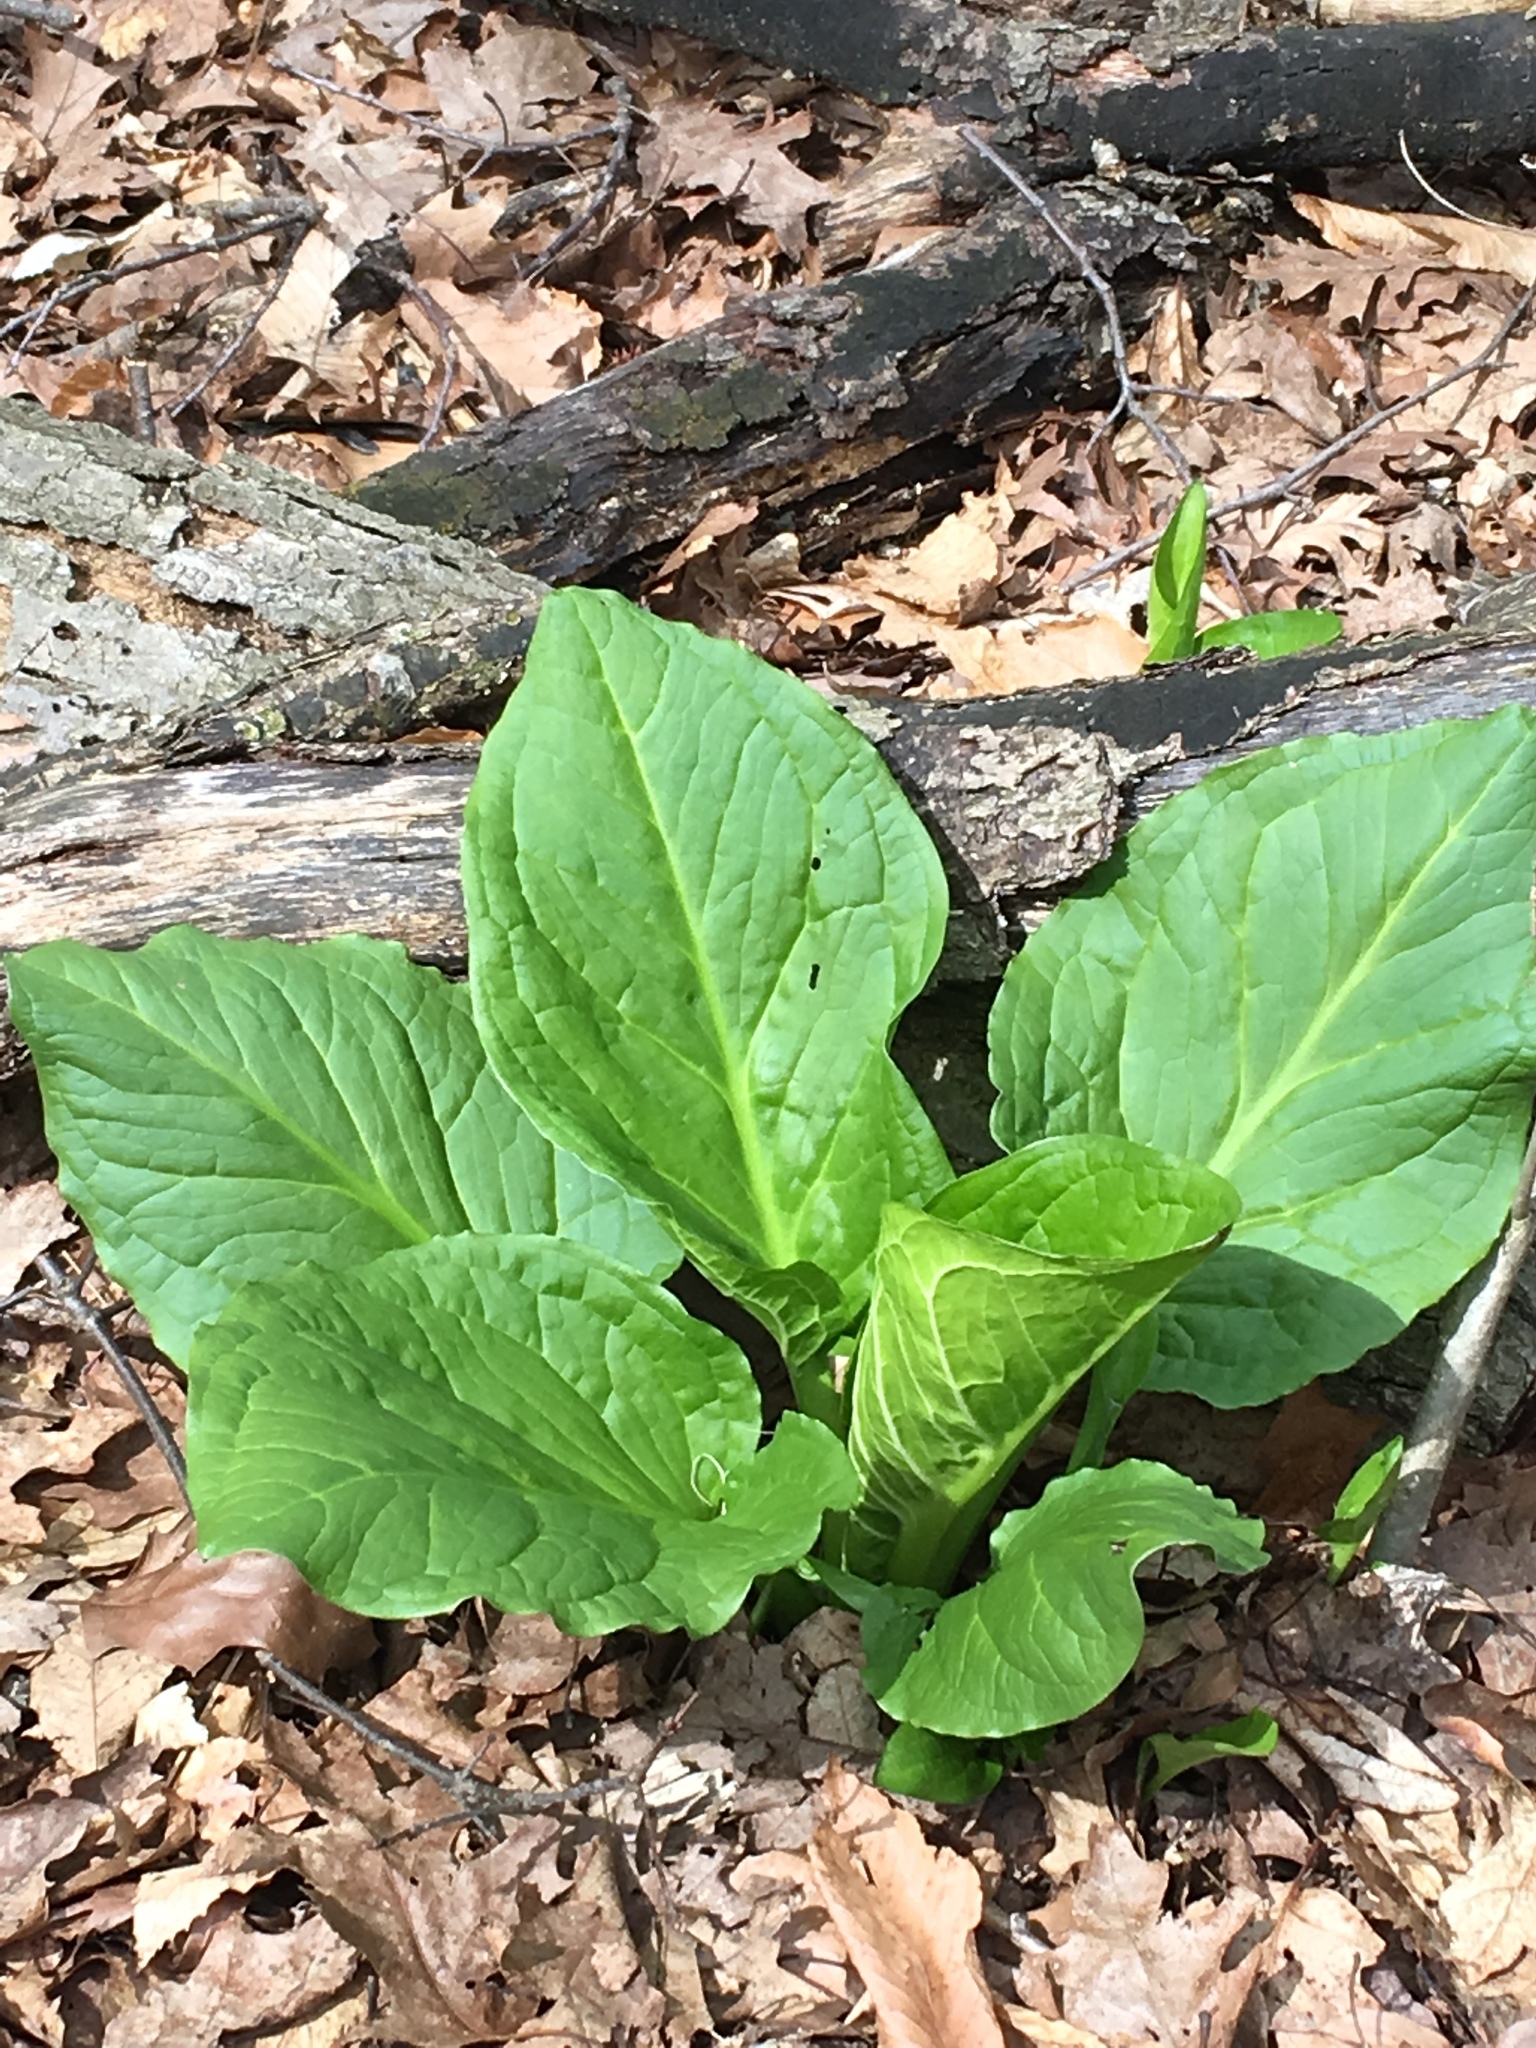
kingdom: Plantae
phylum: Tracheophyta
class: Liliopsida
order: Alismatales
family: Araceae
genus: Symplocarpus
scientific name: Symplocarpus foetidus
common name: Eastern skunk cabbage
